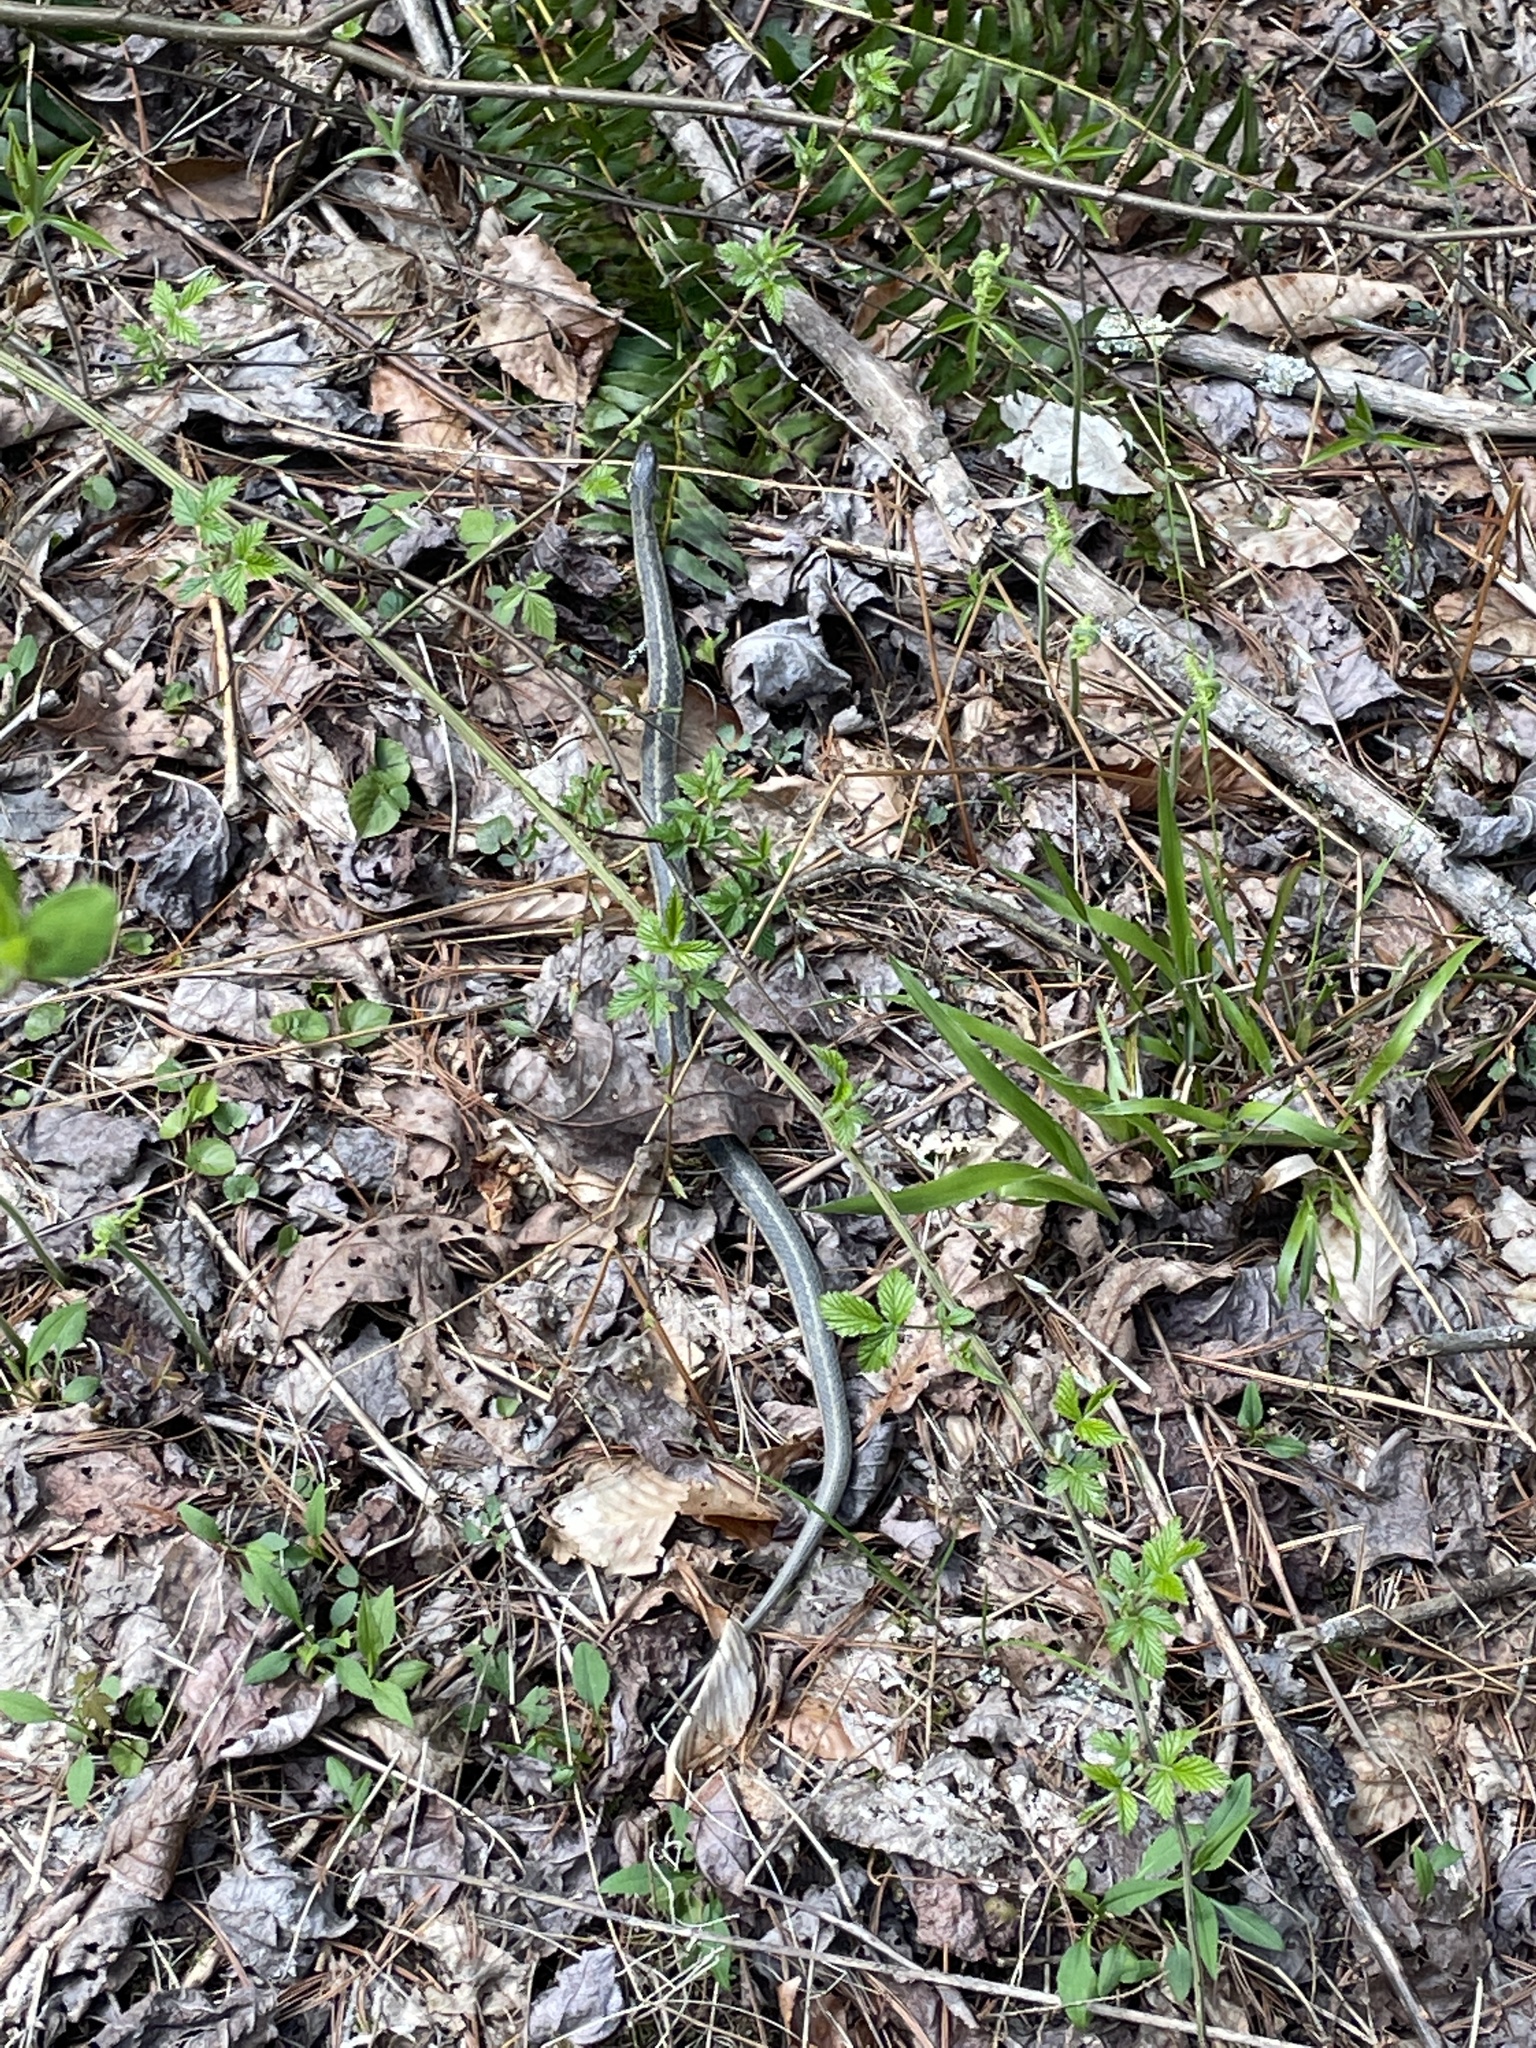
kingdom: Animalia
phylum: Chordata
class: Squamata
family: Colubridae
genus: Thamnophis
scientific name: Thamnophis sirtalis
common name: Common garter snake
